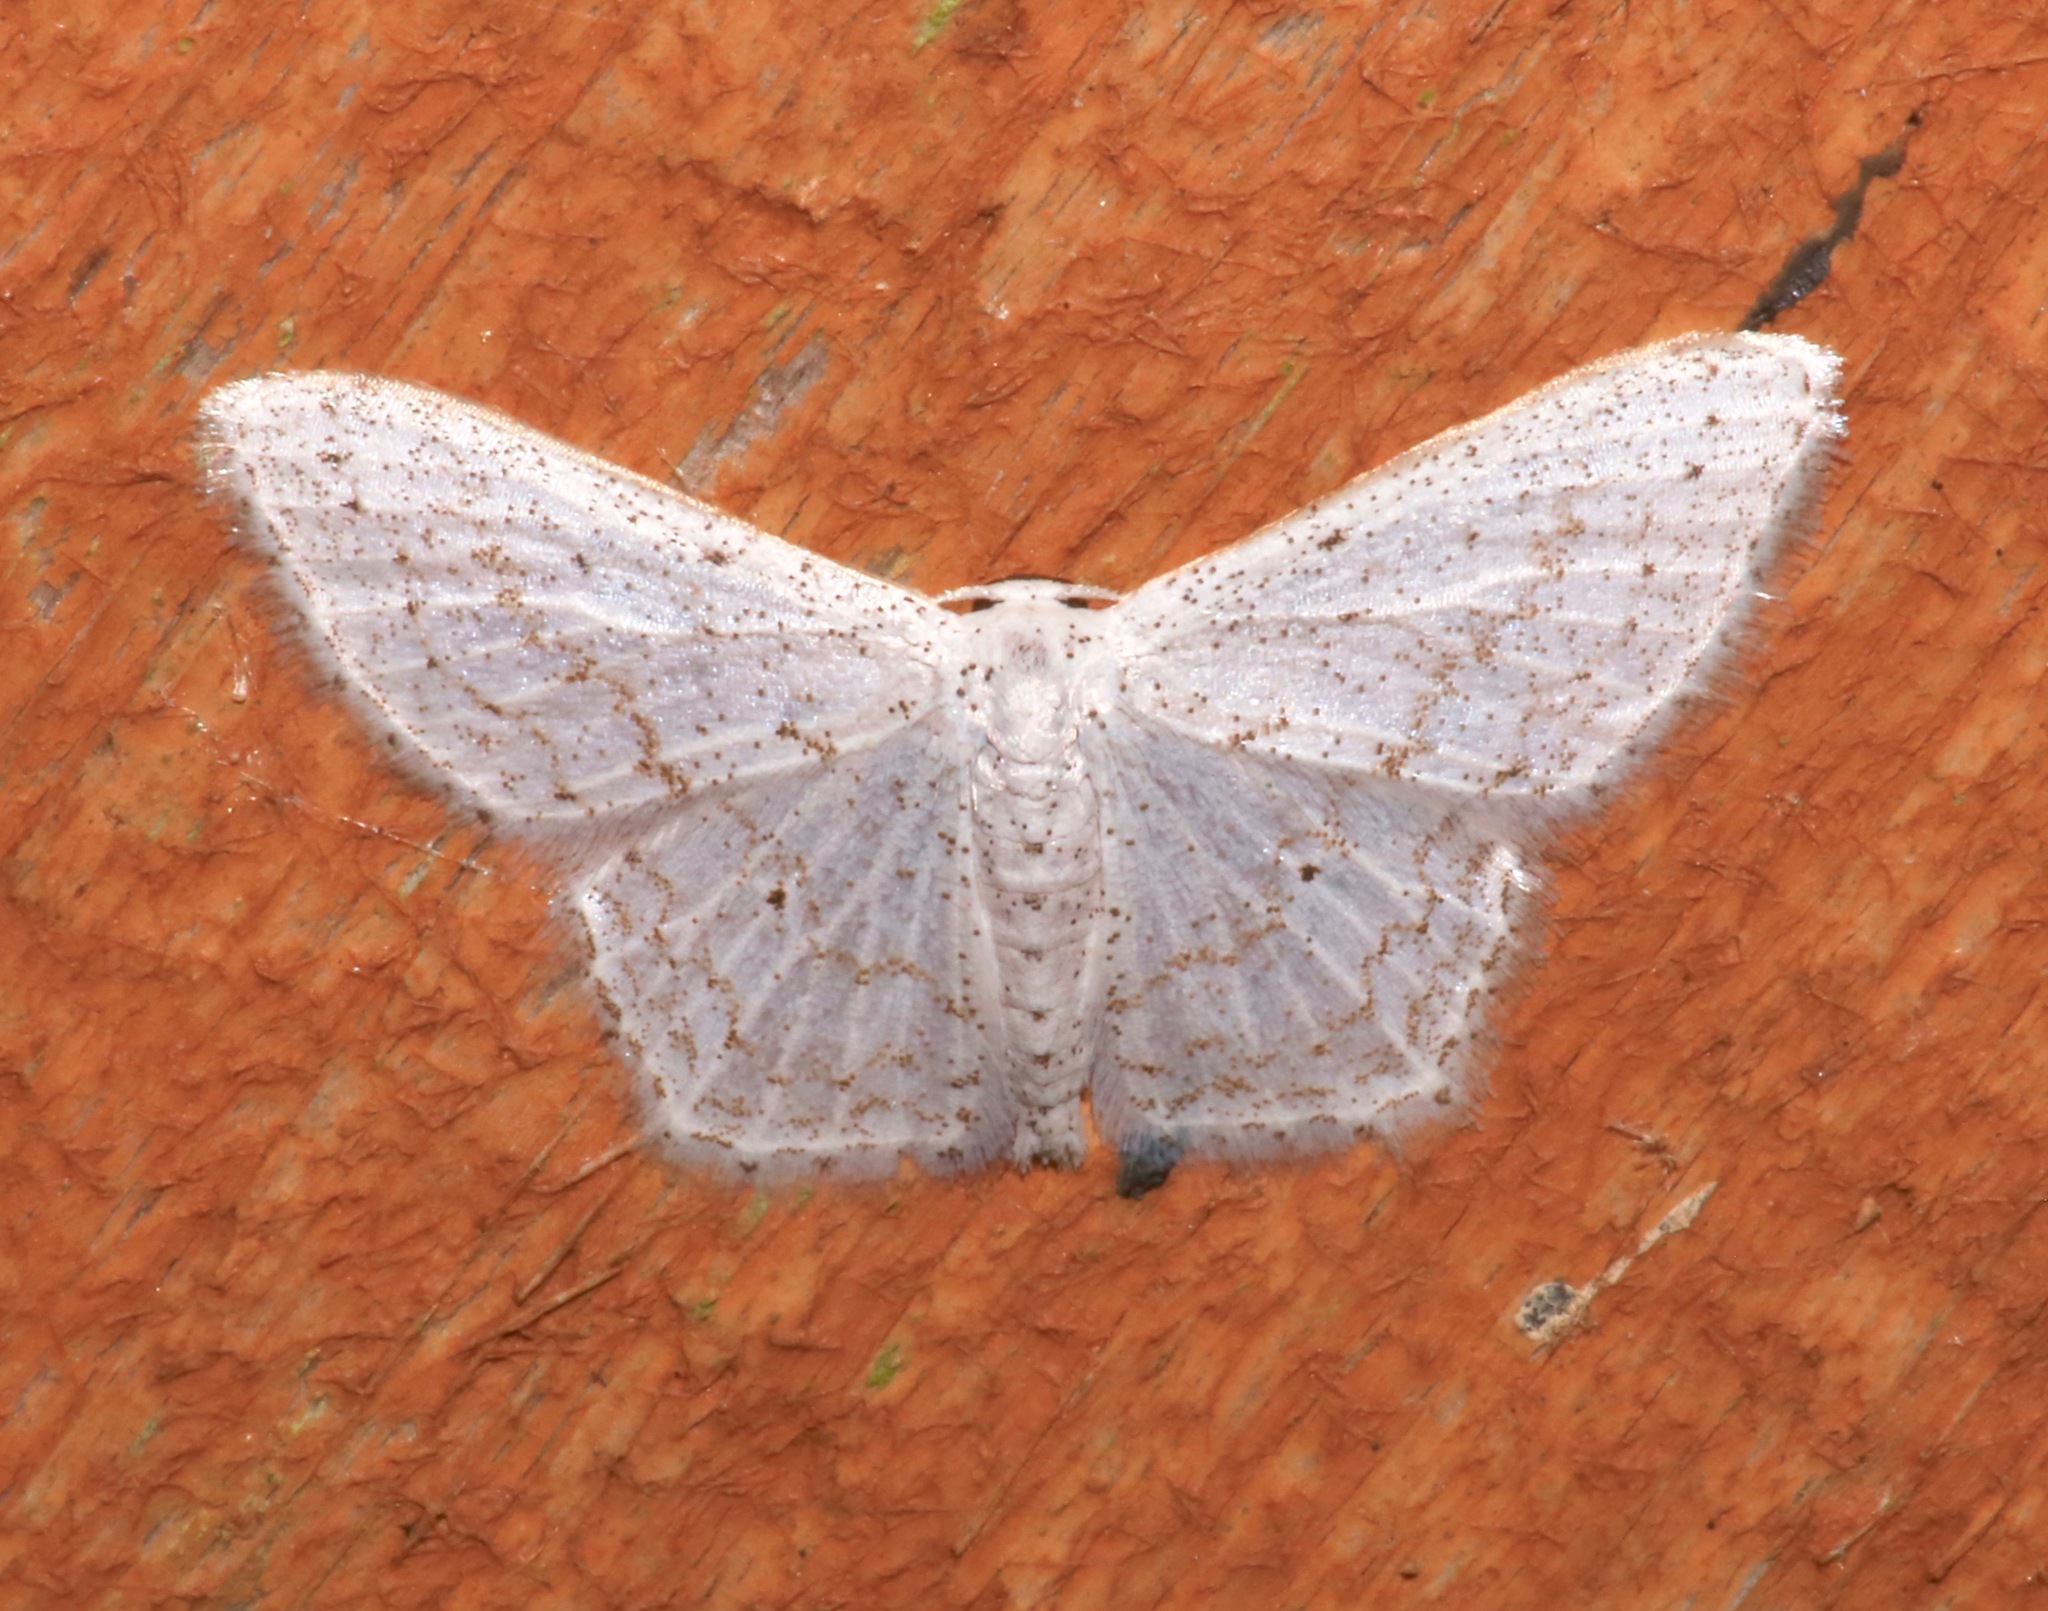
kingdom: Animalia
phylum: Arthropoda
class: Insecta
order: Lepidoptera
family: Geometridae
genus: Idaea
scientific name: Idaea tacturata
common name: Dot-lined wave
